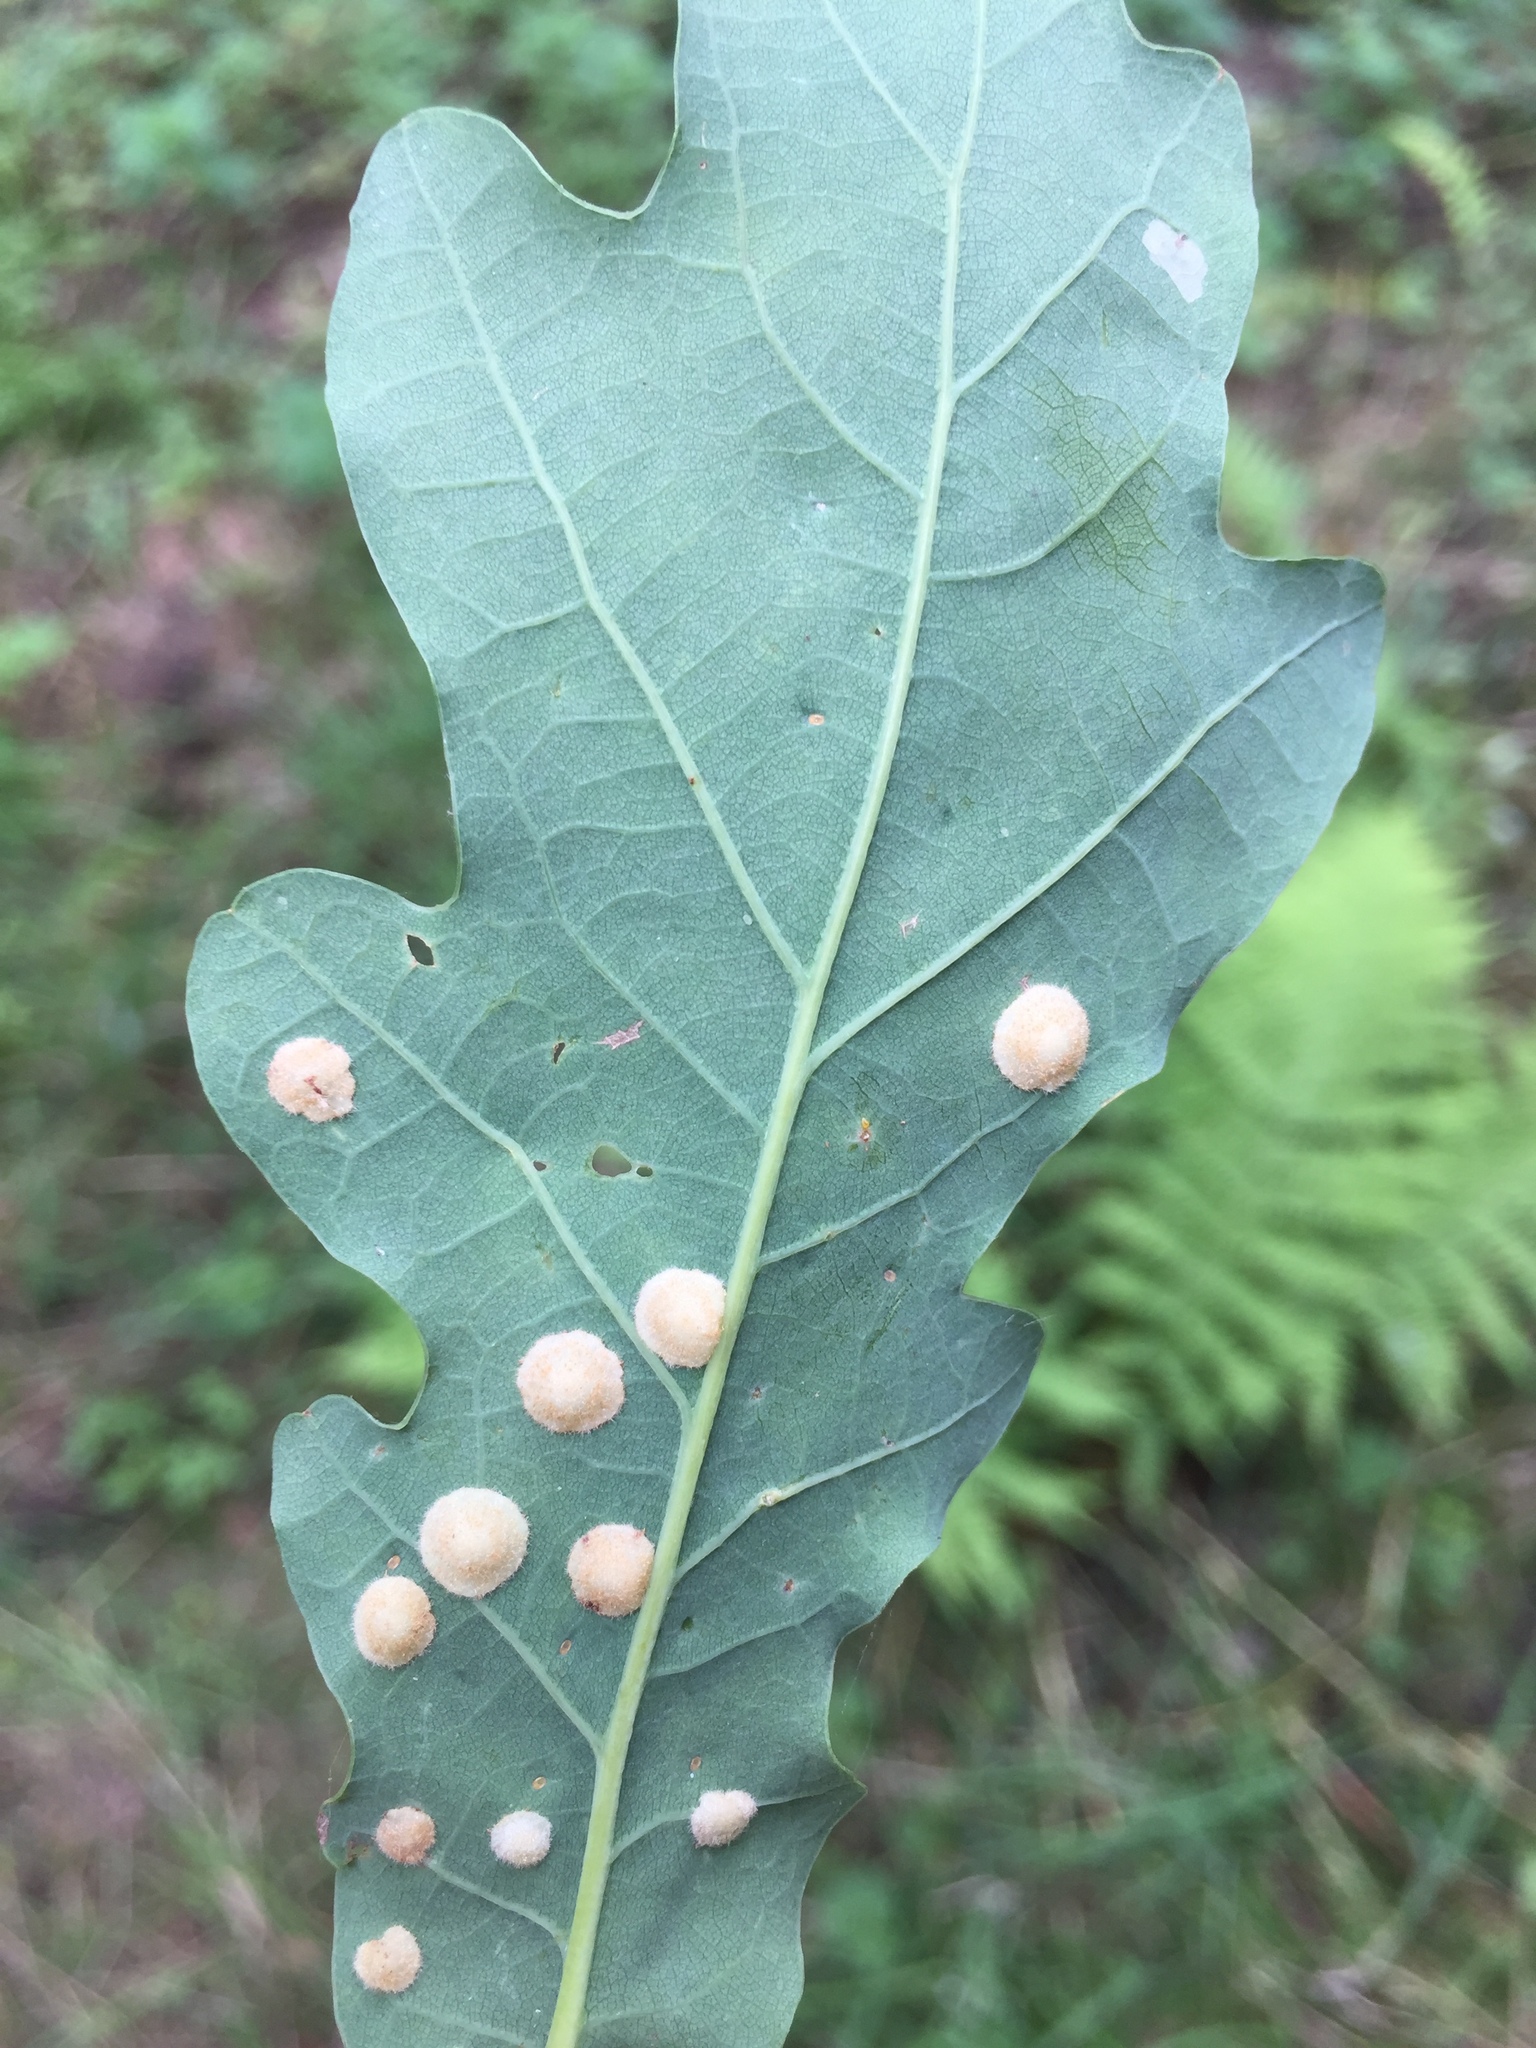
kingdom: Animalia
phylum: Arthropoda
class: Insecta
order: Hymenoptera
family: Cynipidae
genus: Neuroterus
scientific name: Neuroterus quercusbaccarum
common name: Common spangle gall
